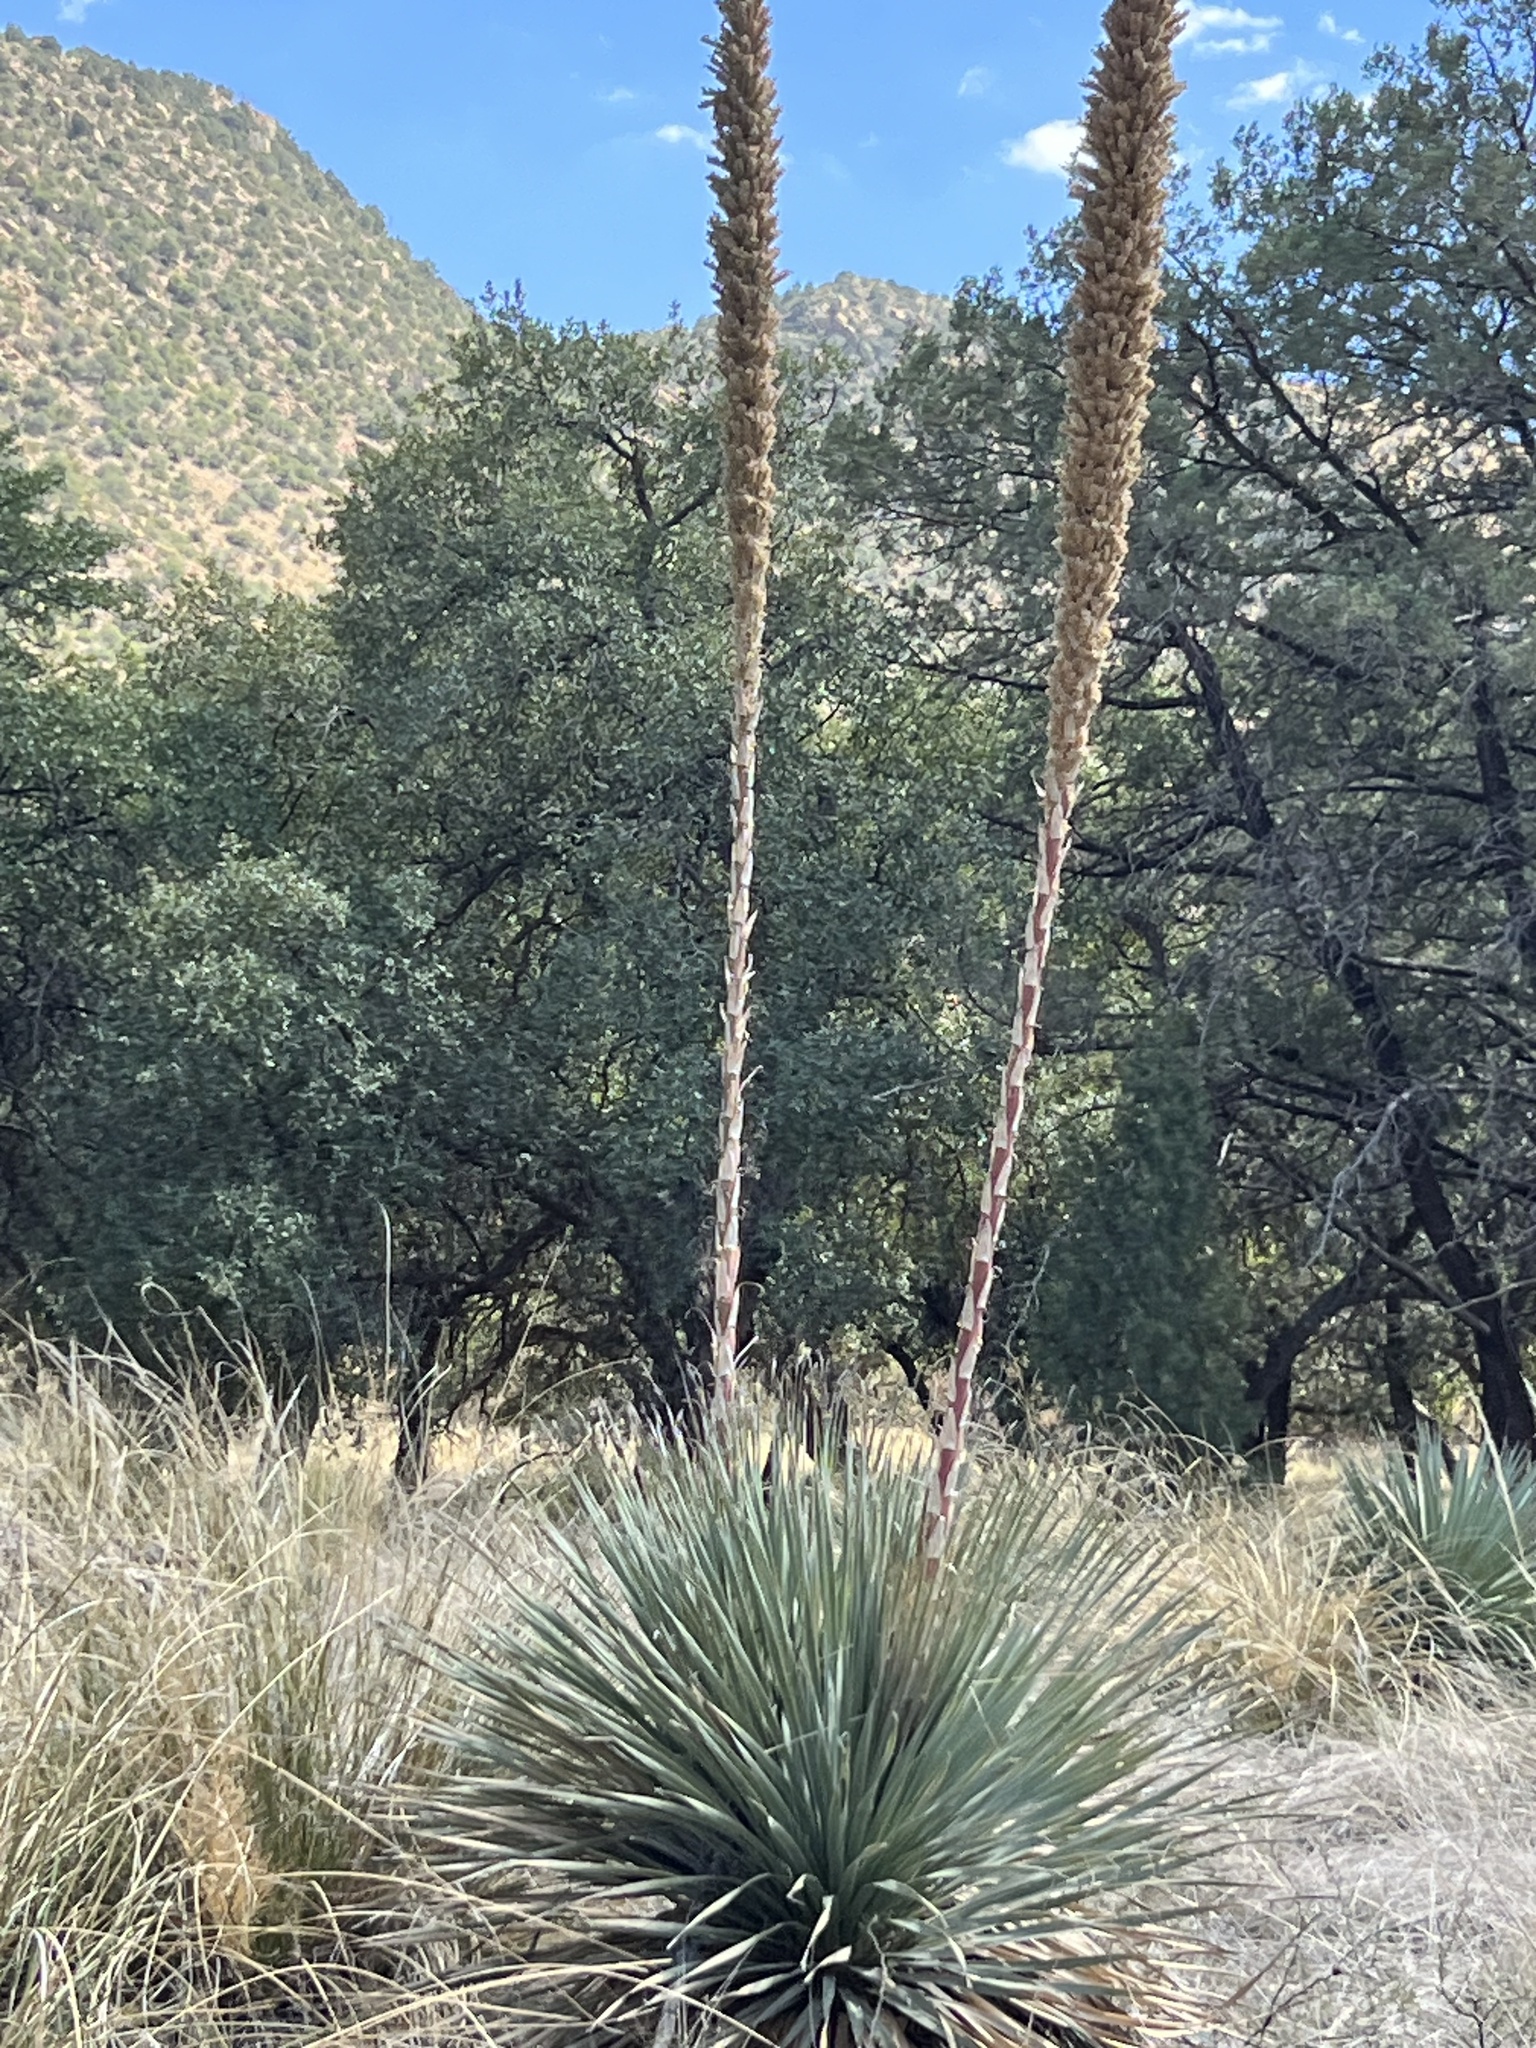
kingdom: Plantae
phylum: Tracheophyta
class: Liliopsida
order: Asparagales
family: Asparagaceae
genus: Dasylirion
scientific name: Dasylirion wheeleri
